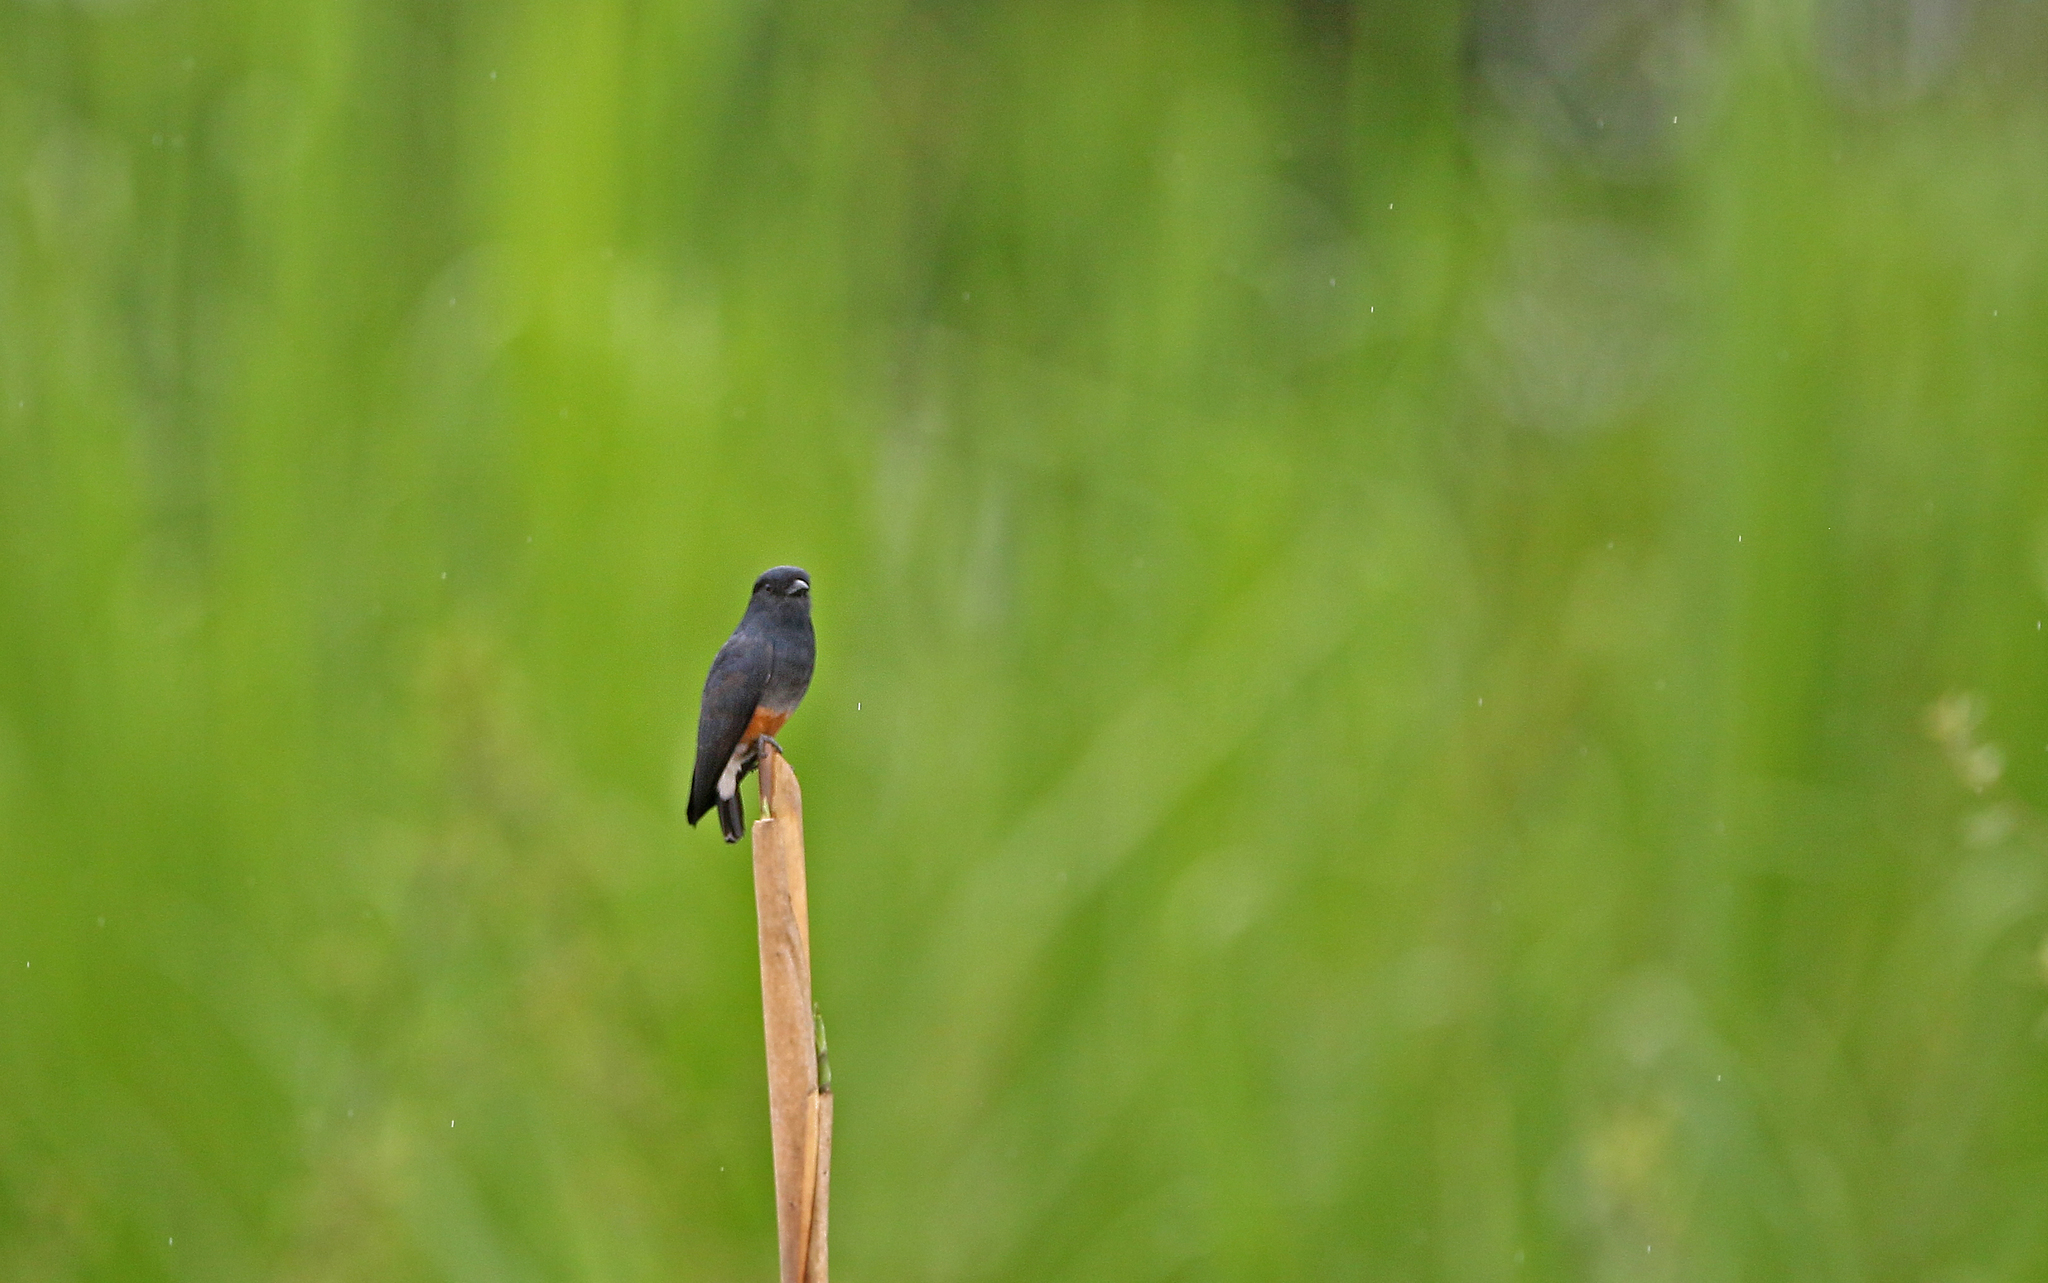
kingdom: Animalia
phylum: Chordata
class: Aves
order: Piciformes
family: Bucconidae
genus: Chelidoptera
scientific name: Chelidoptera tenebrosa
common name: Swallow-winged puffbird
